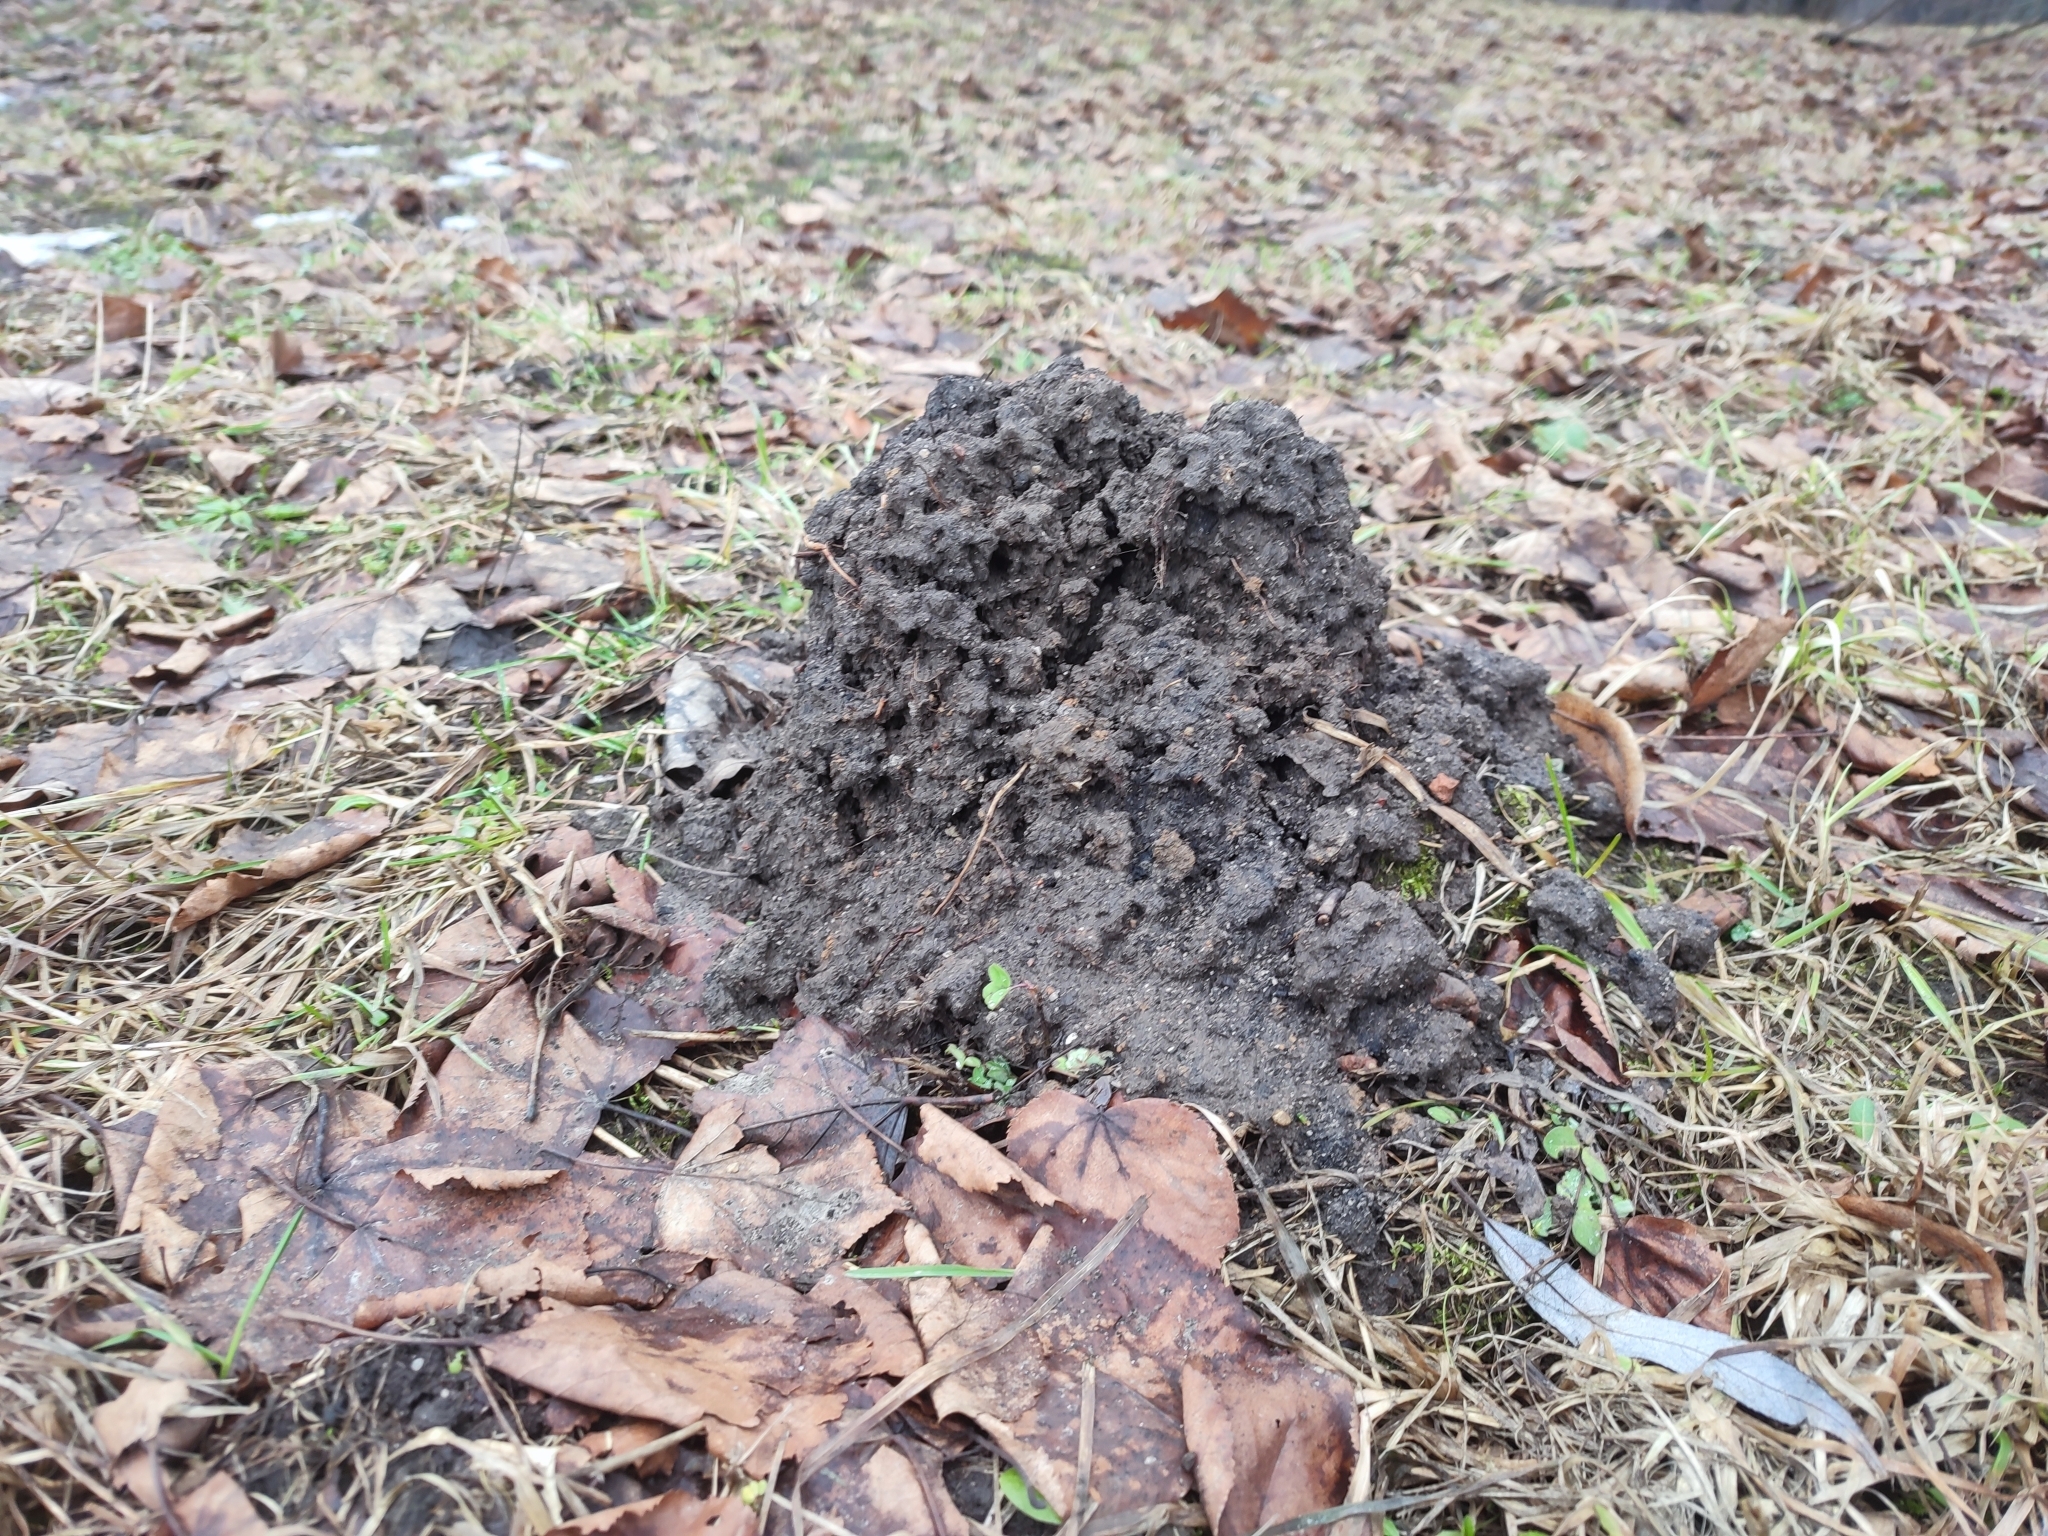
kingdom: Animalia
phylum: Chordata
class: Mammalia
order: Soricomorpha
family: Talpidae
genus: Talpa
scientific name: Talpa europaea
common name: European mole
